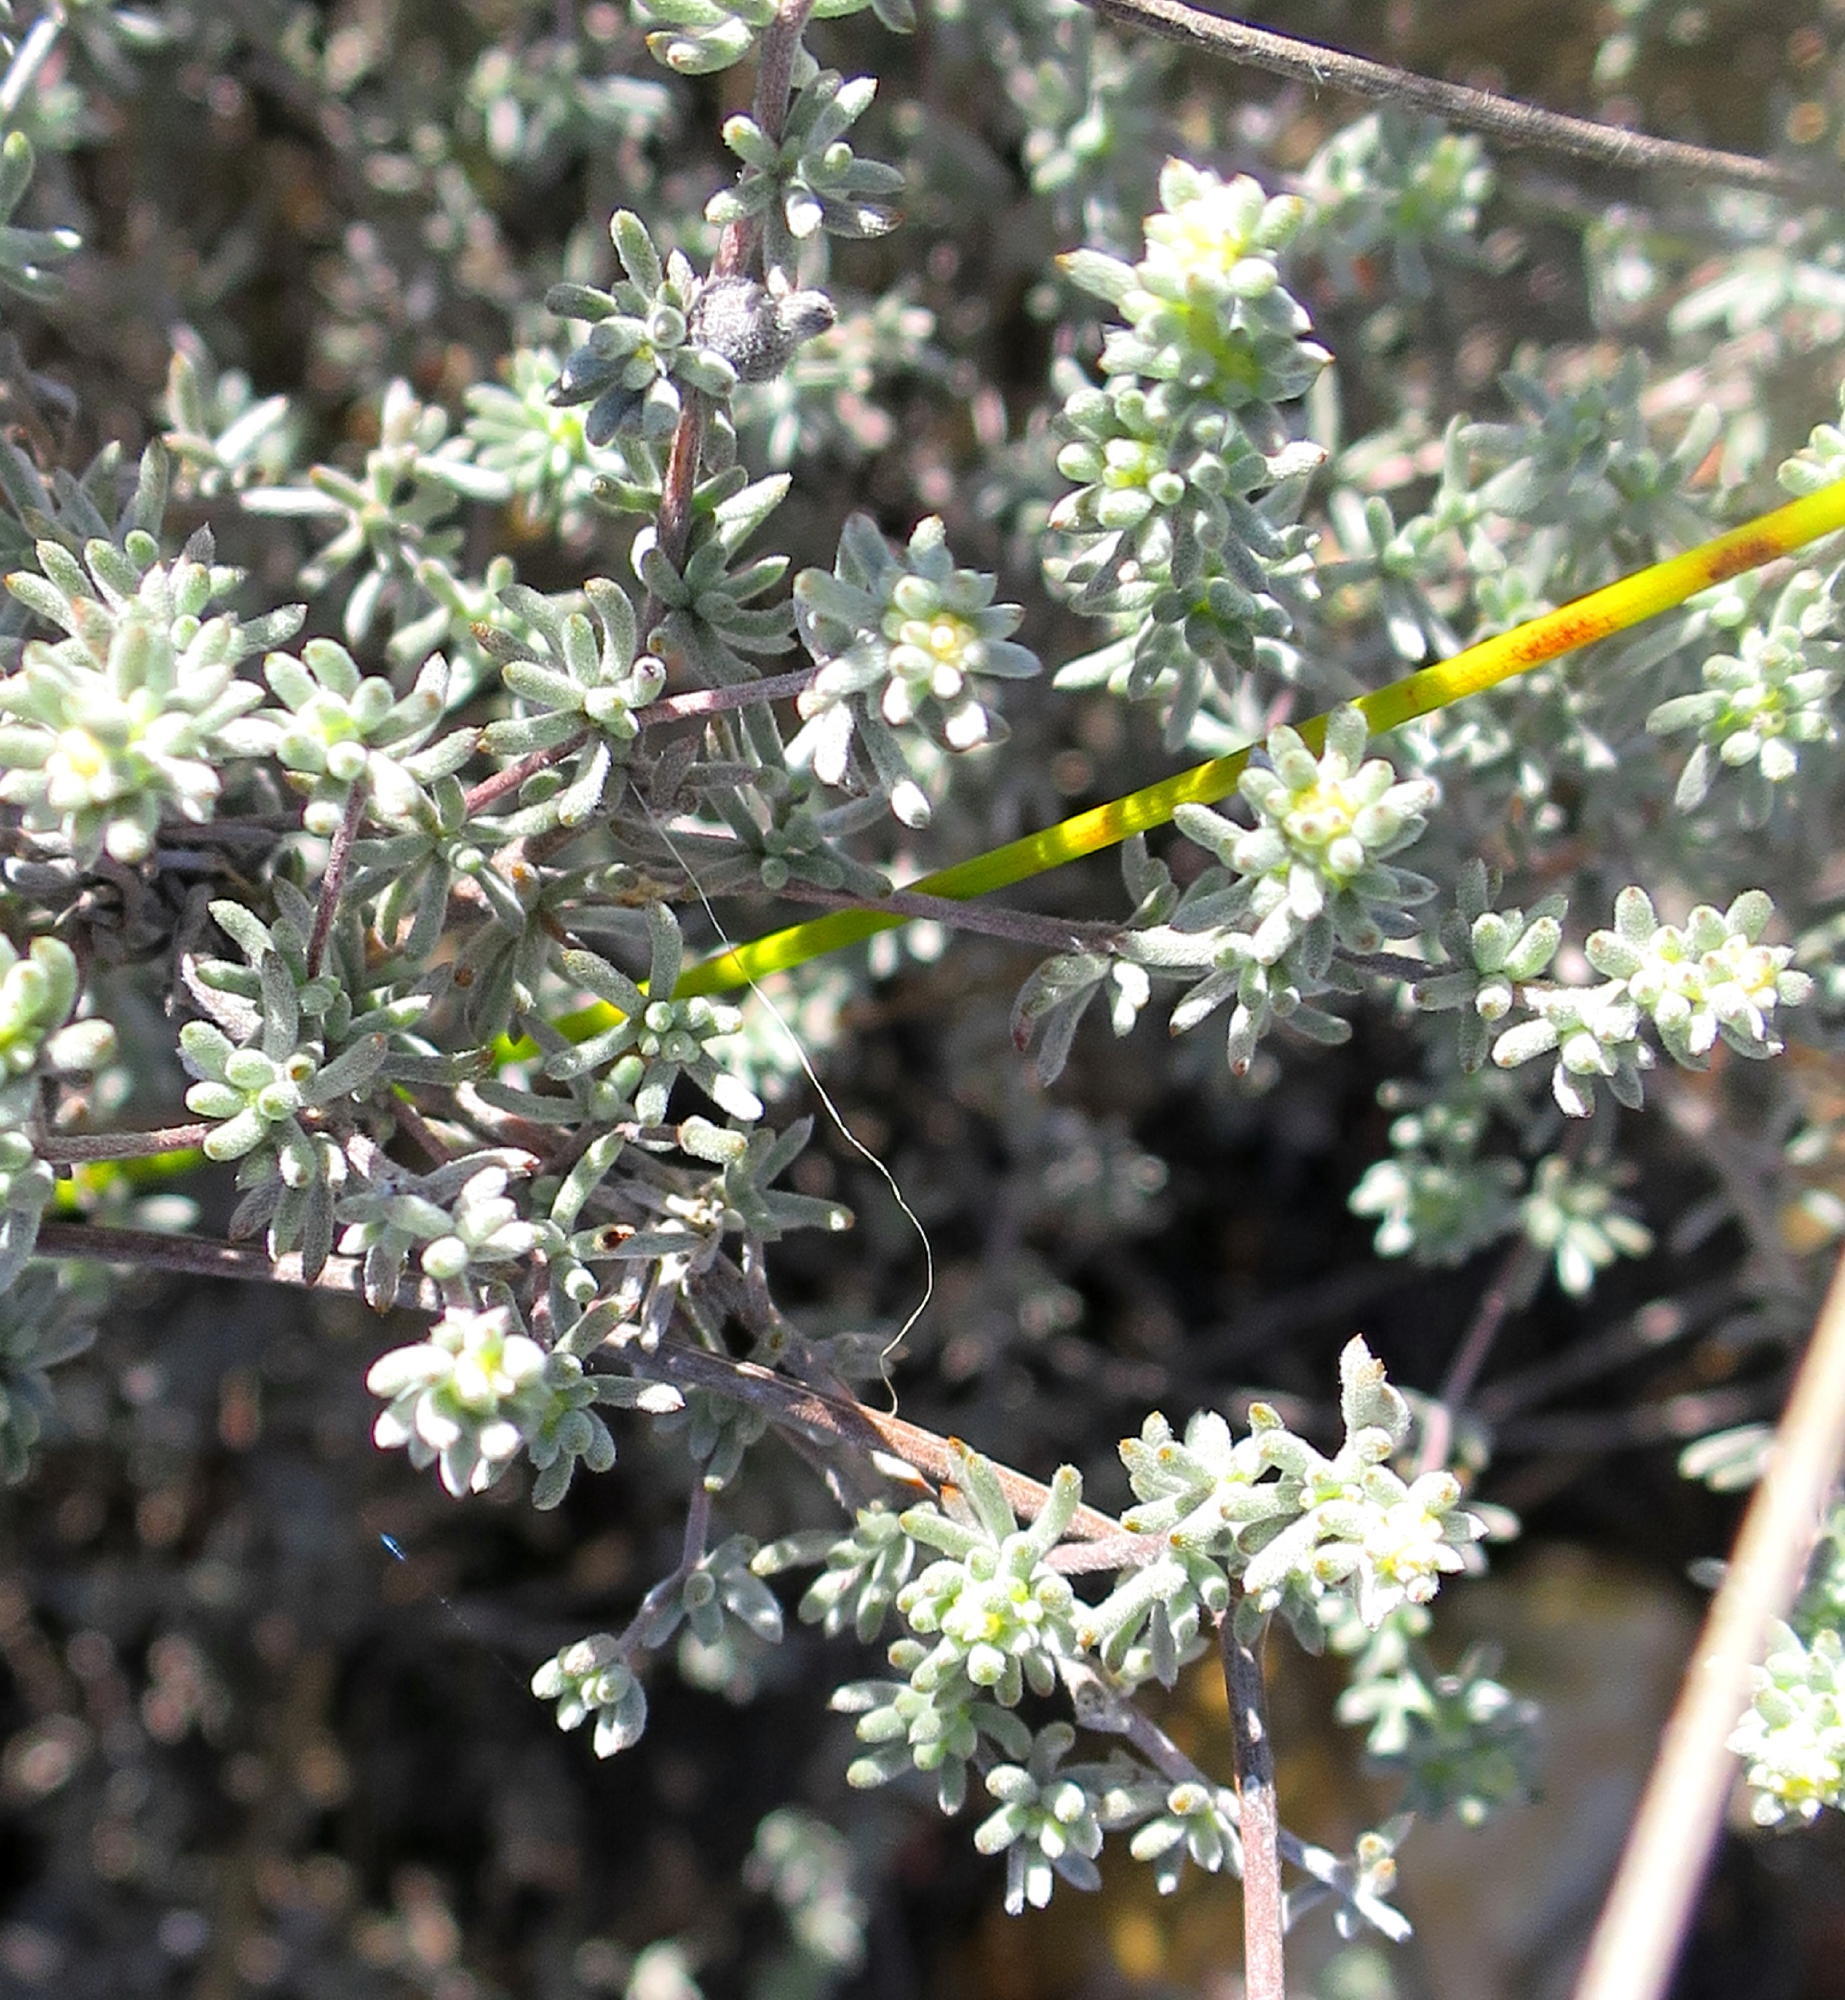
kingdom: Plantae
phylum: Tracheophyta
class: Magnoliopsida
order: Fabales
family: Fabaceae
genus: Aspalathus
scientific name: Aspalathus digitifolia
